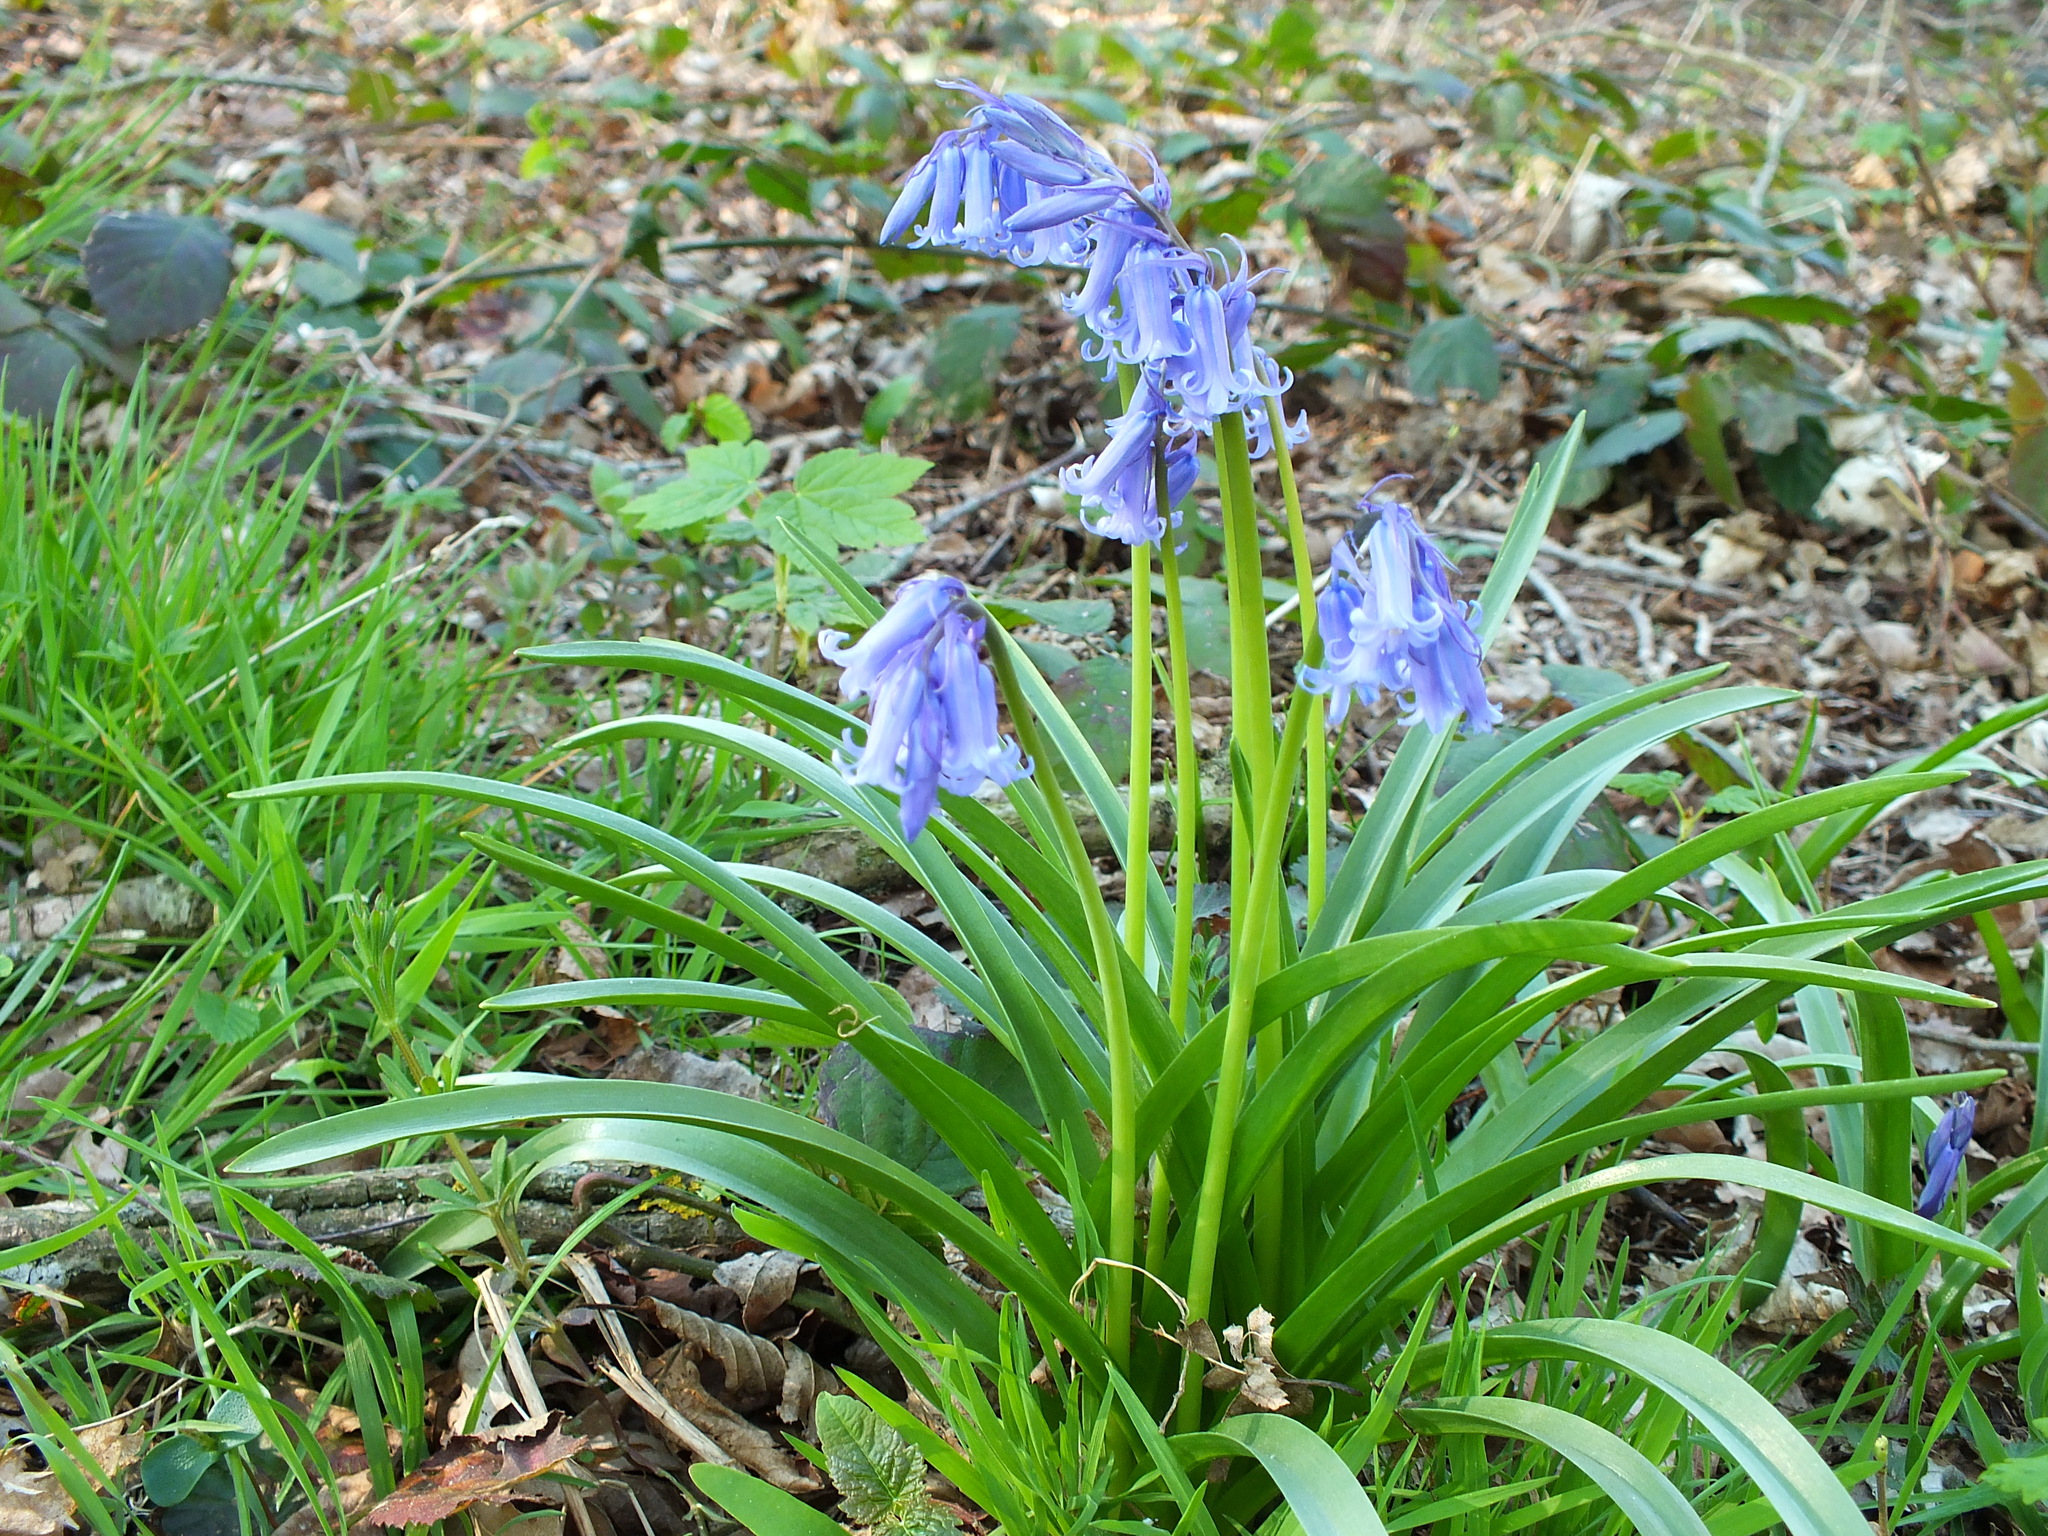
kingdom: Plantae
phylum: Tracheophyta
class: Liliopsida
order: Asparagales
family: Asparagaceae
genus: Hyacinthoides
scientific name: Hyacinthoides non-scripta
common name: Bluebell
